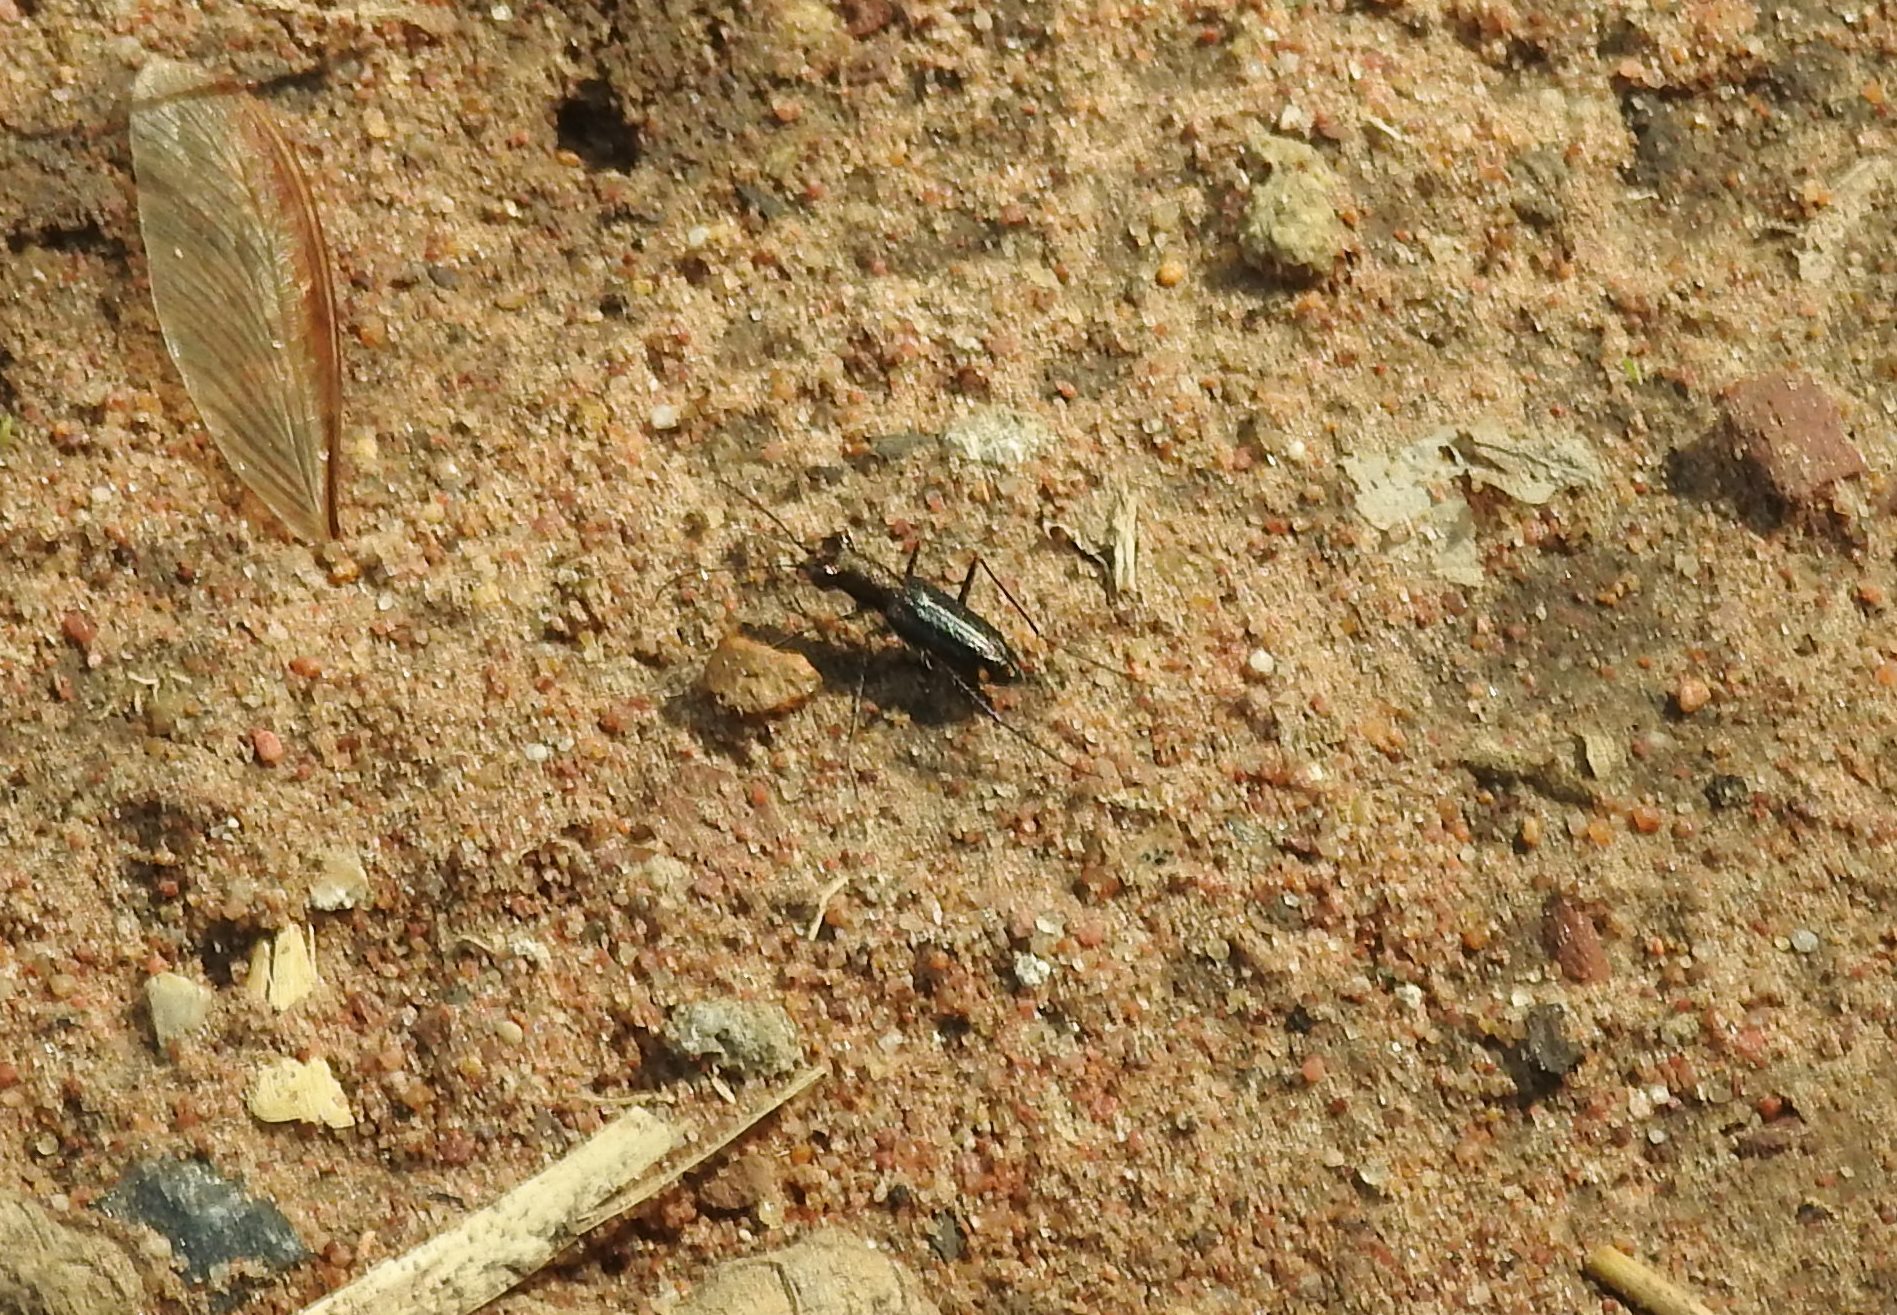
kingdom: Animalia
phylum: Arthropoda
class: Insecta
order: Coleoptera
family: Carabidae
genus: Jansenia
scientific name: Jansenia tetrastacta
